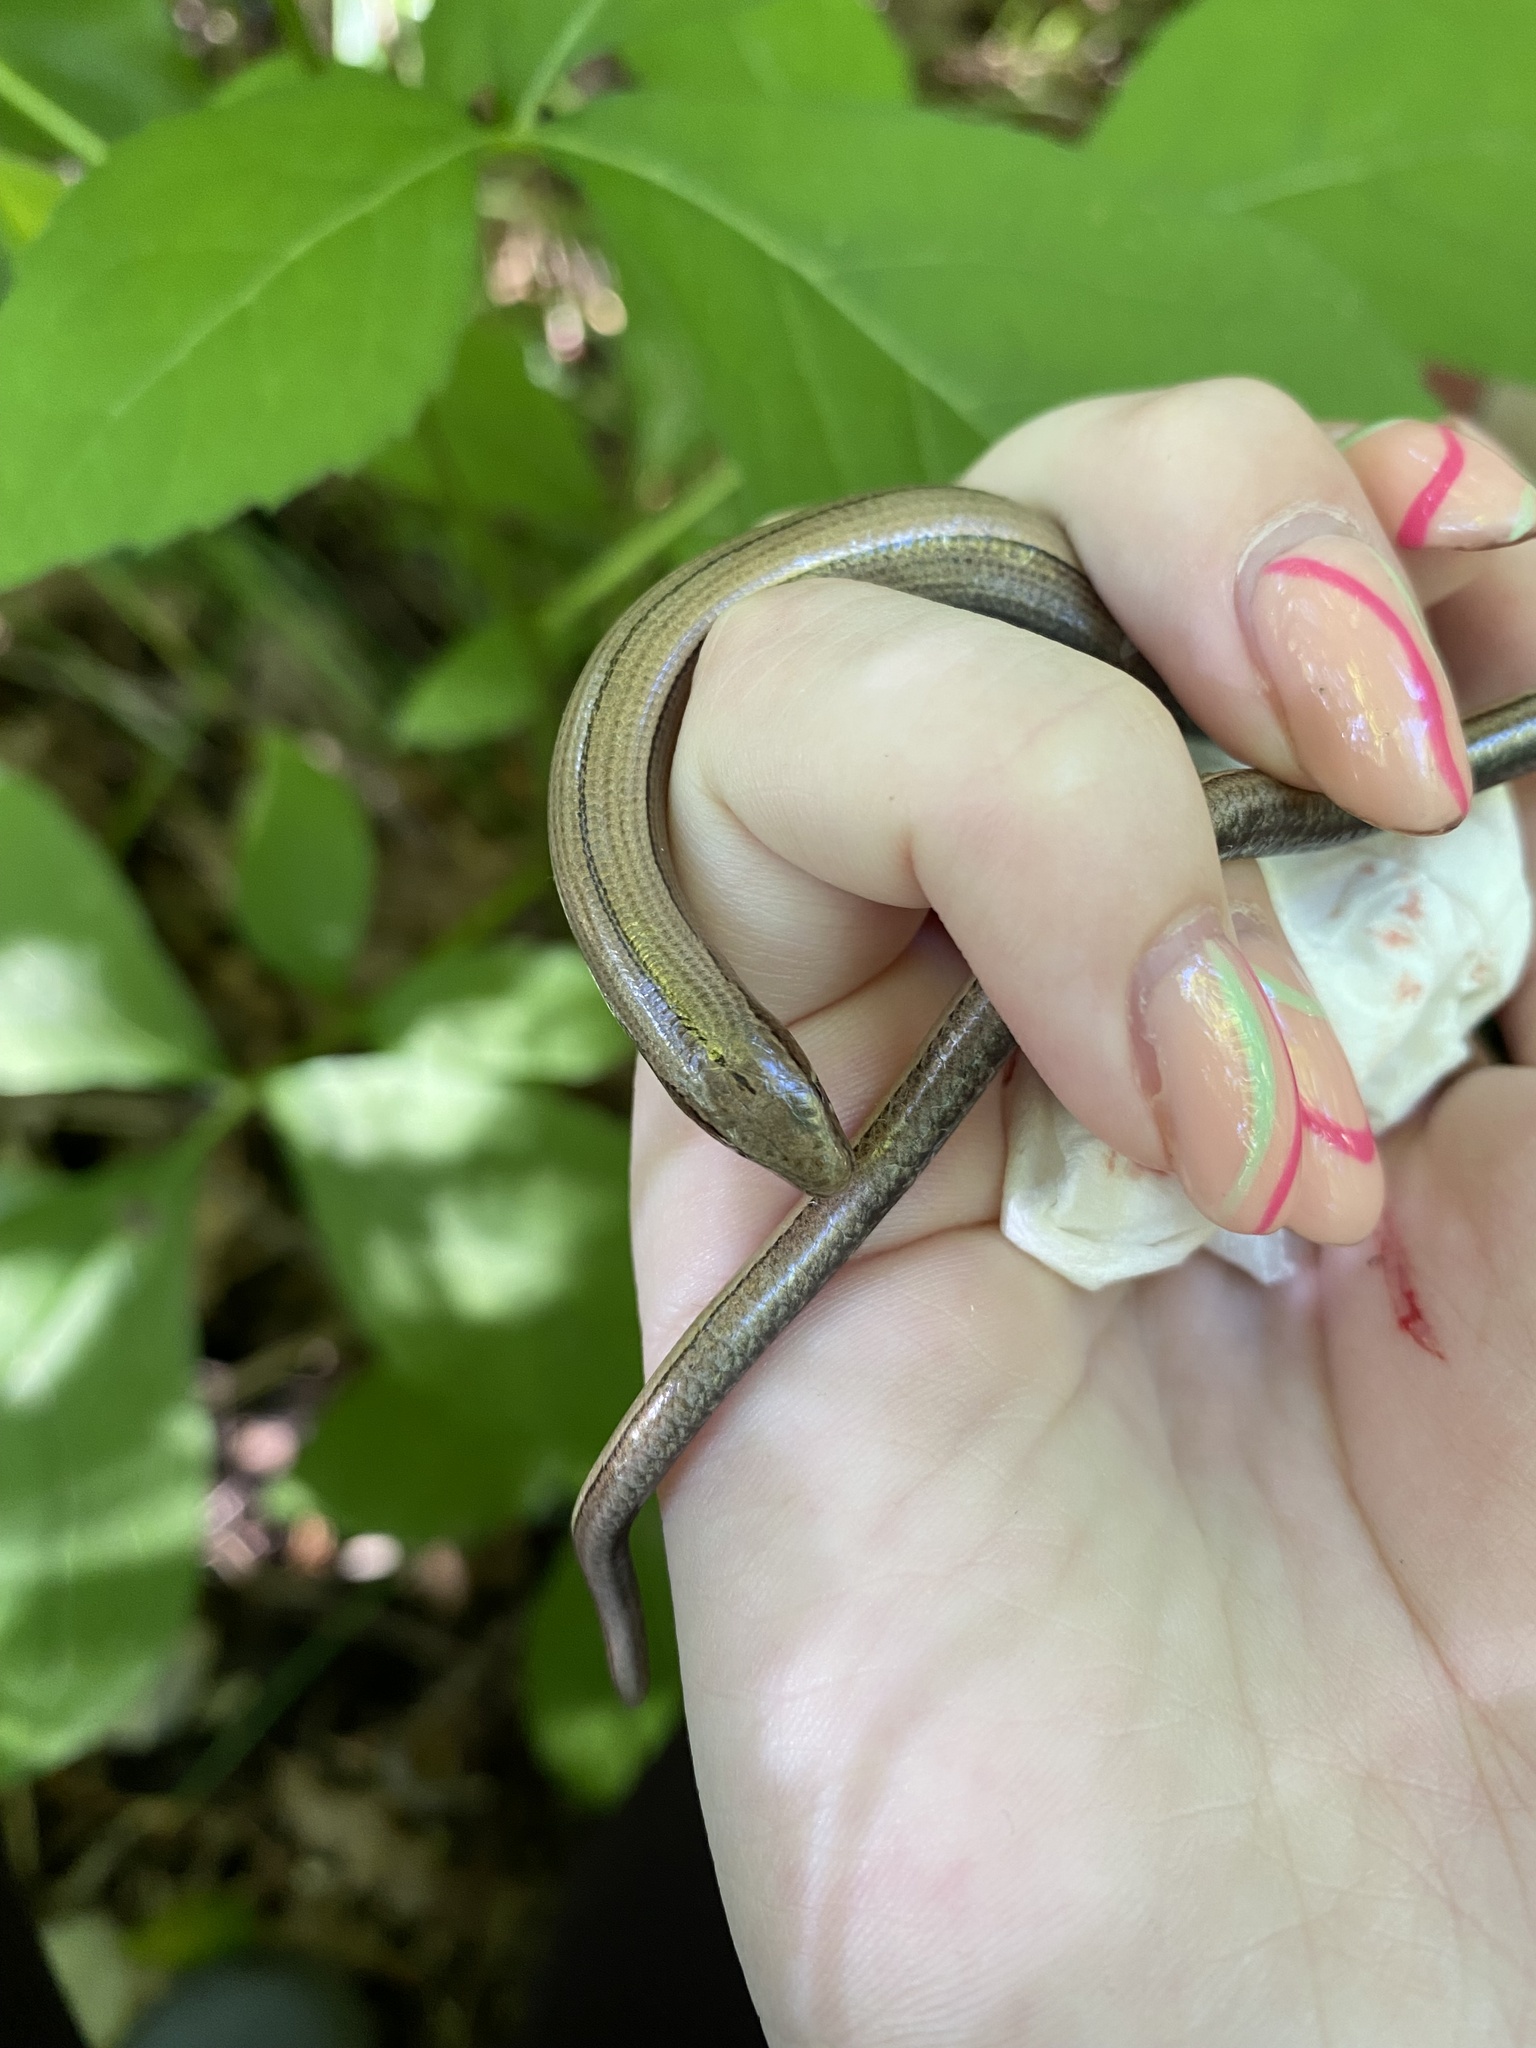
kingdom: Animalia
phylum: Chordata
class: Squamata
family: Anguidae
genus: Anguis
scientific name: Anguis colchica
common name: Slow worm
